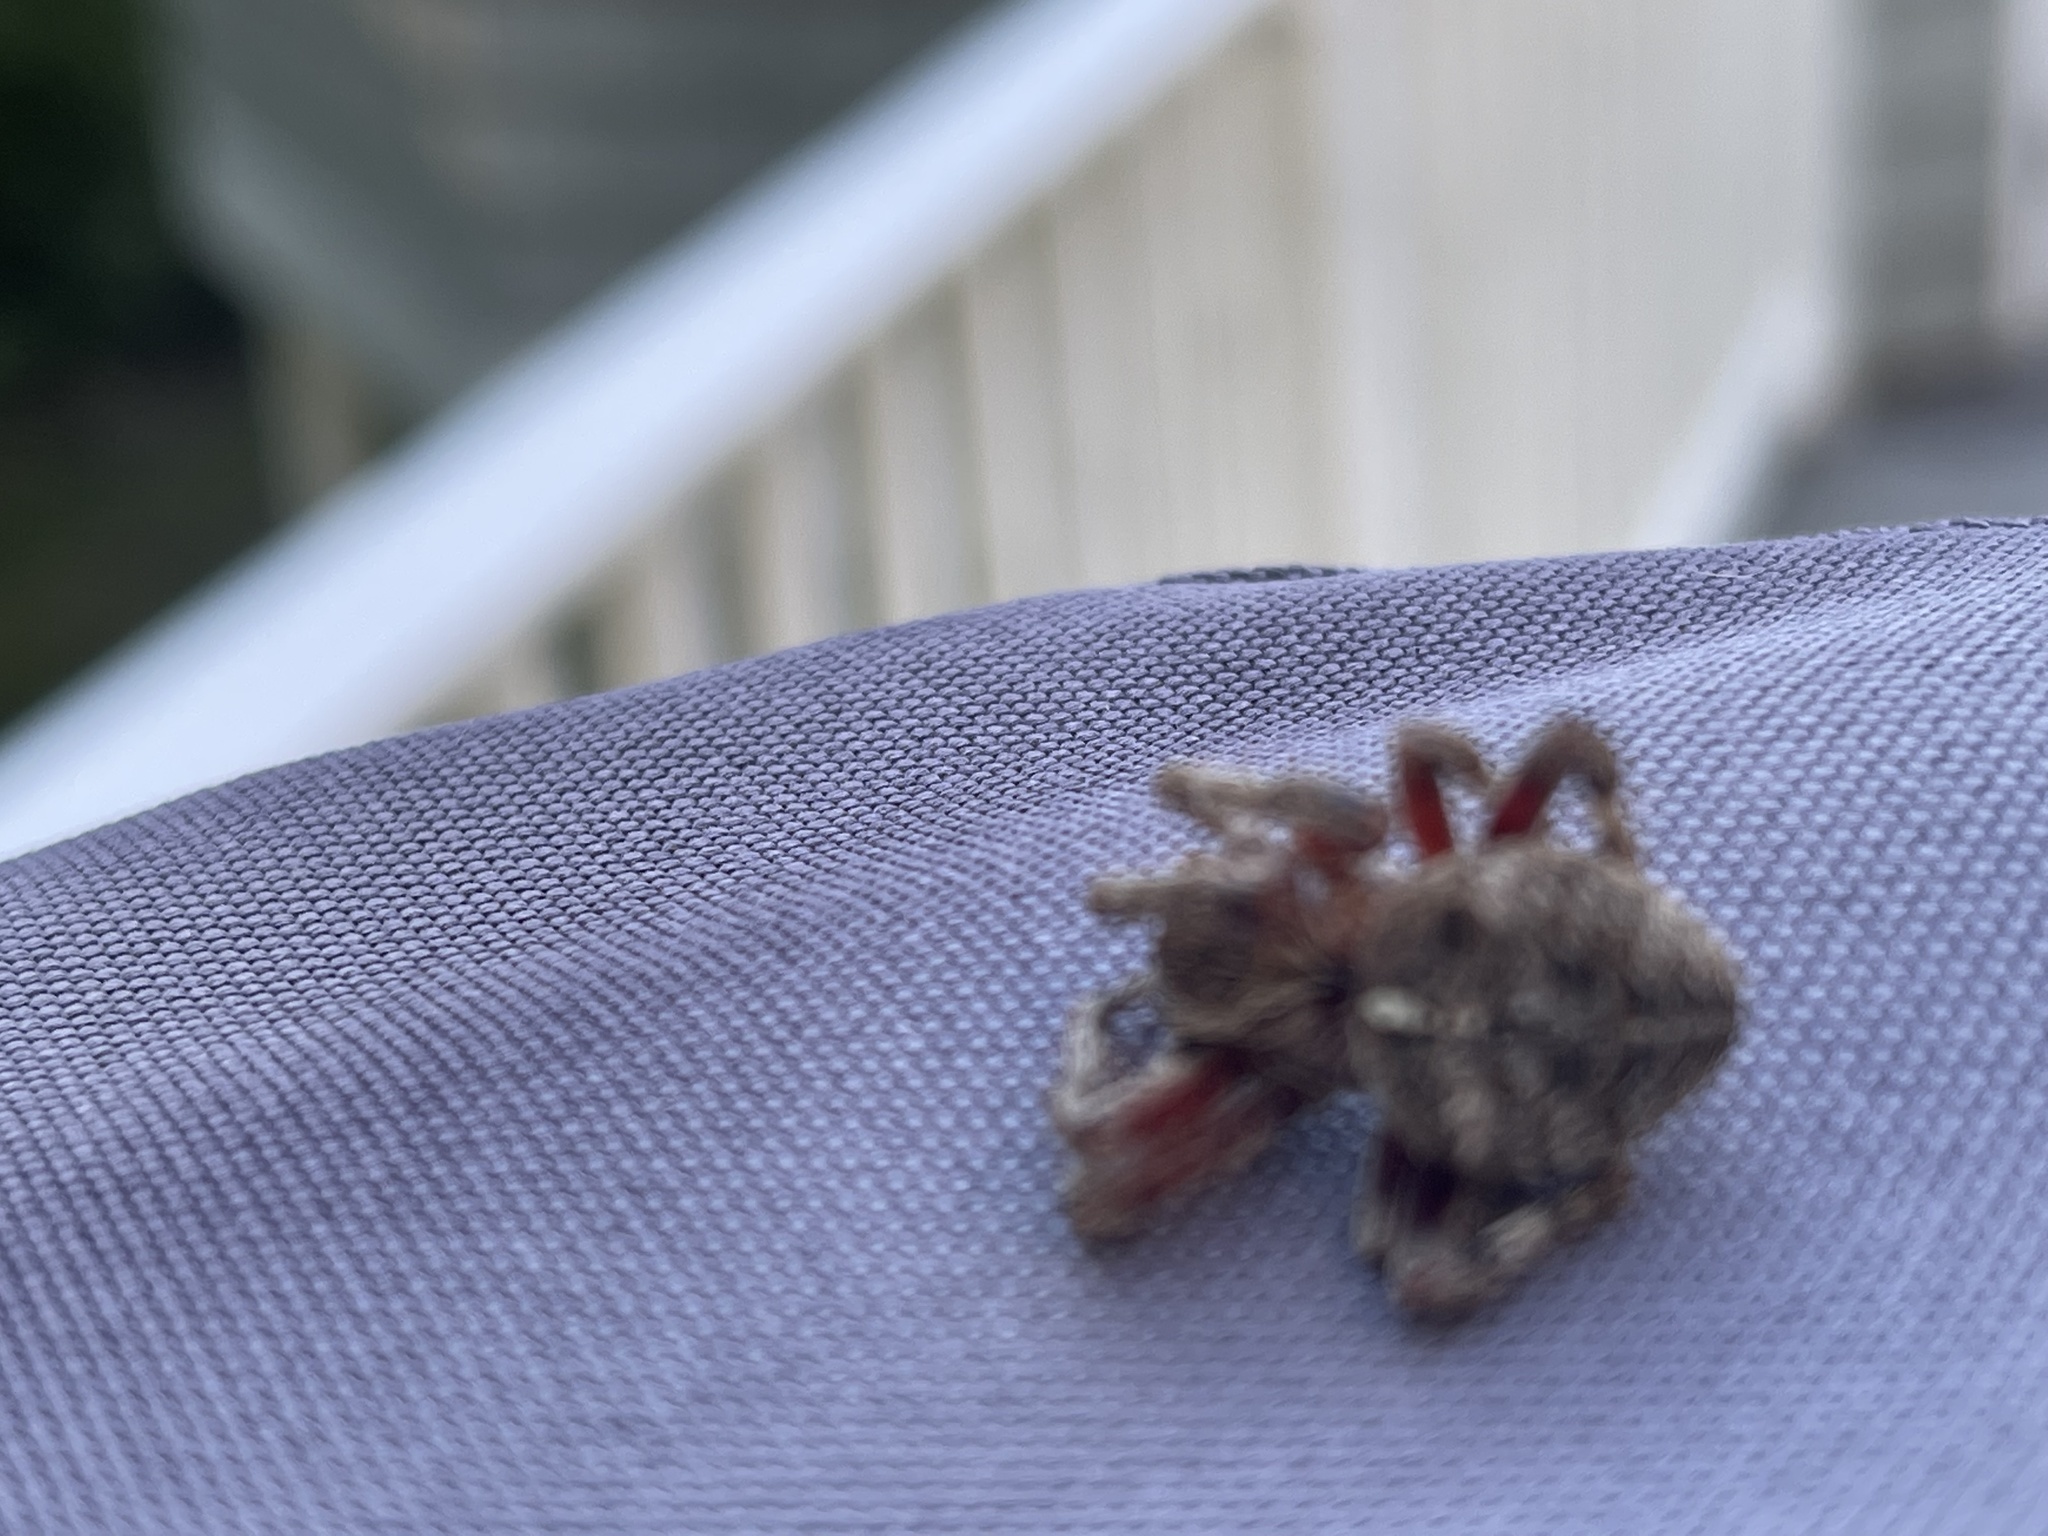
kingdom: Animalia
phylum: Arthropoda
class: Arachnida
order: Araneae
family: Araneidae
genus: Araneus
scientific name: Araneus saevus
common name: Fierce orbweaver
